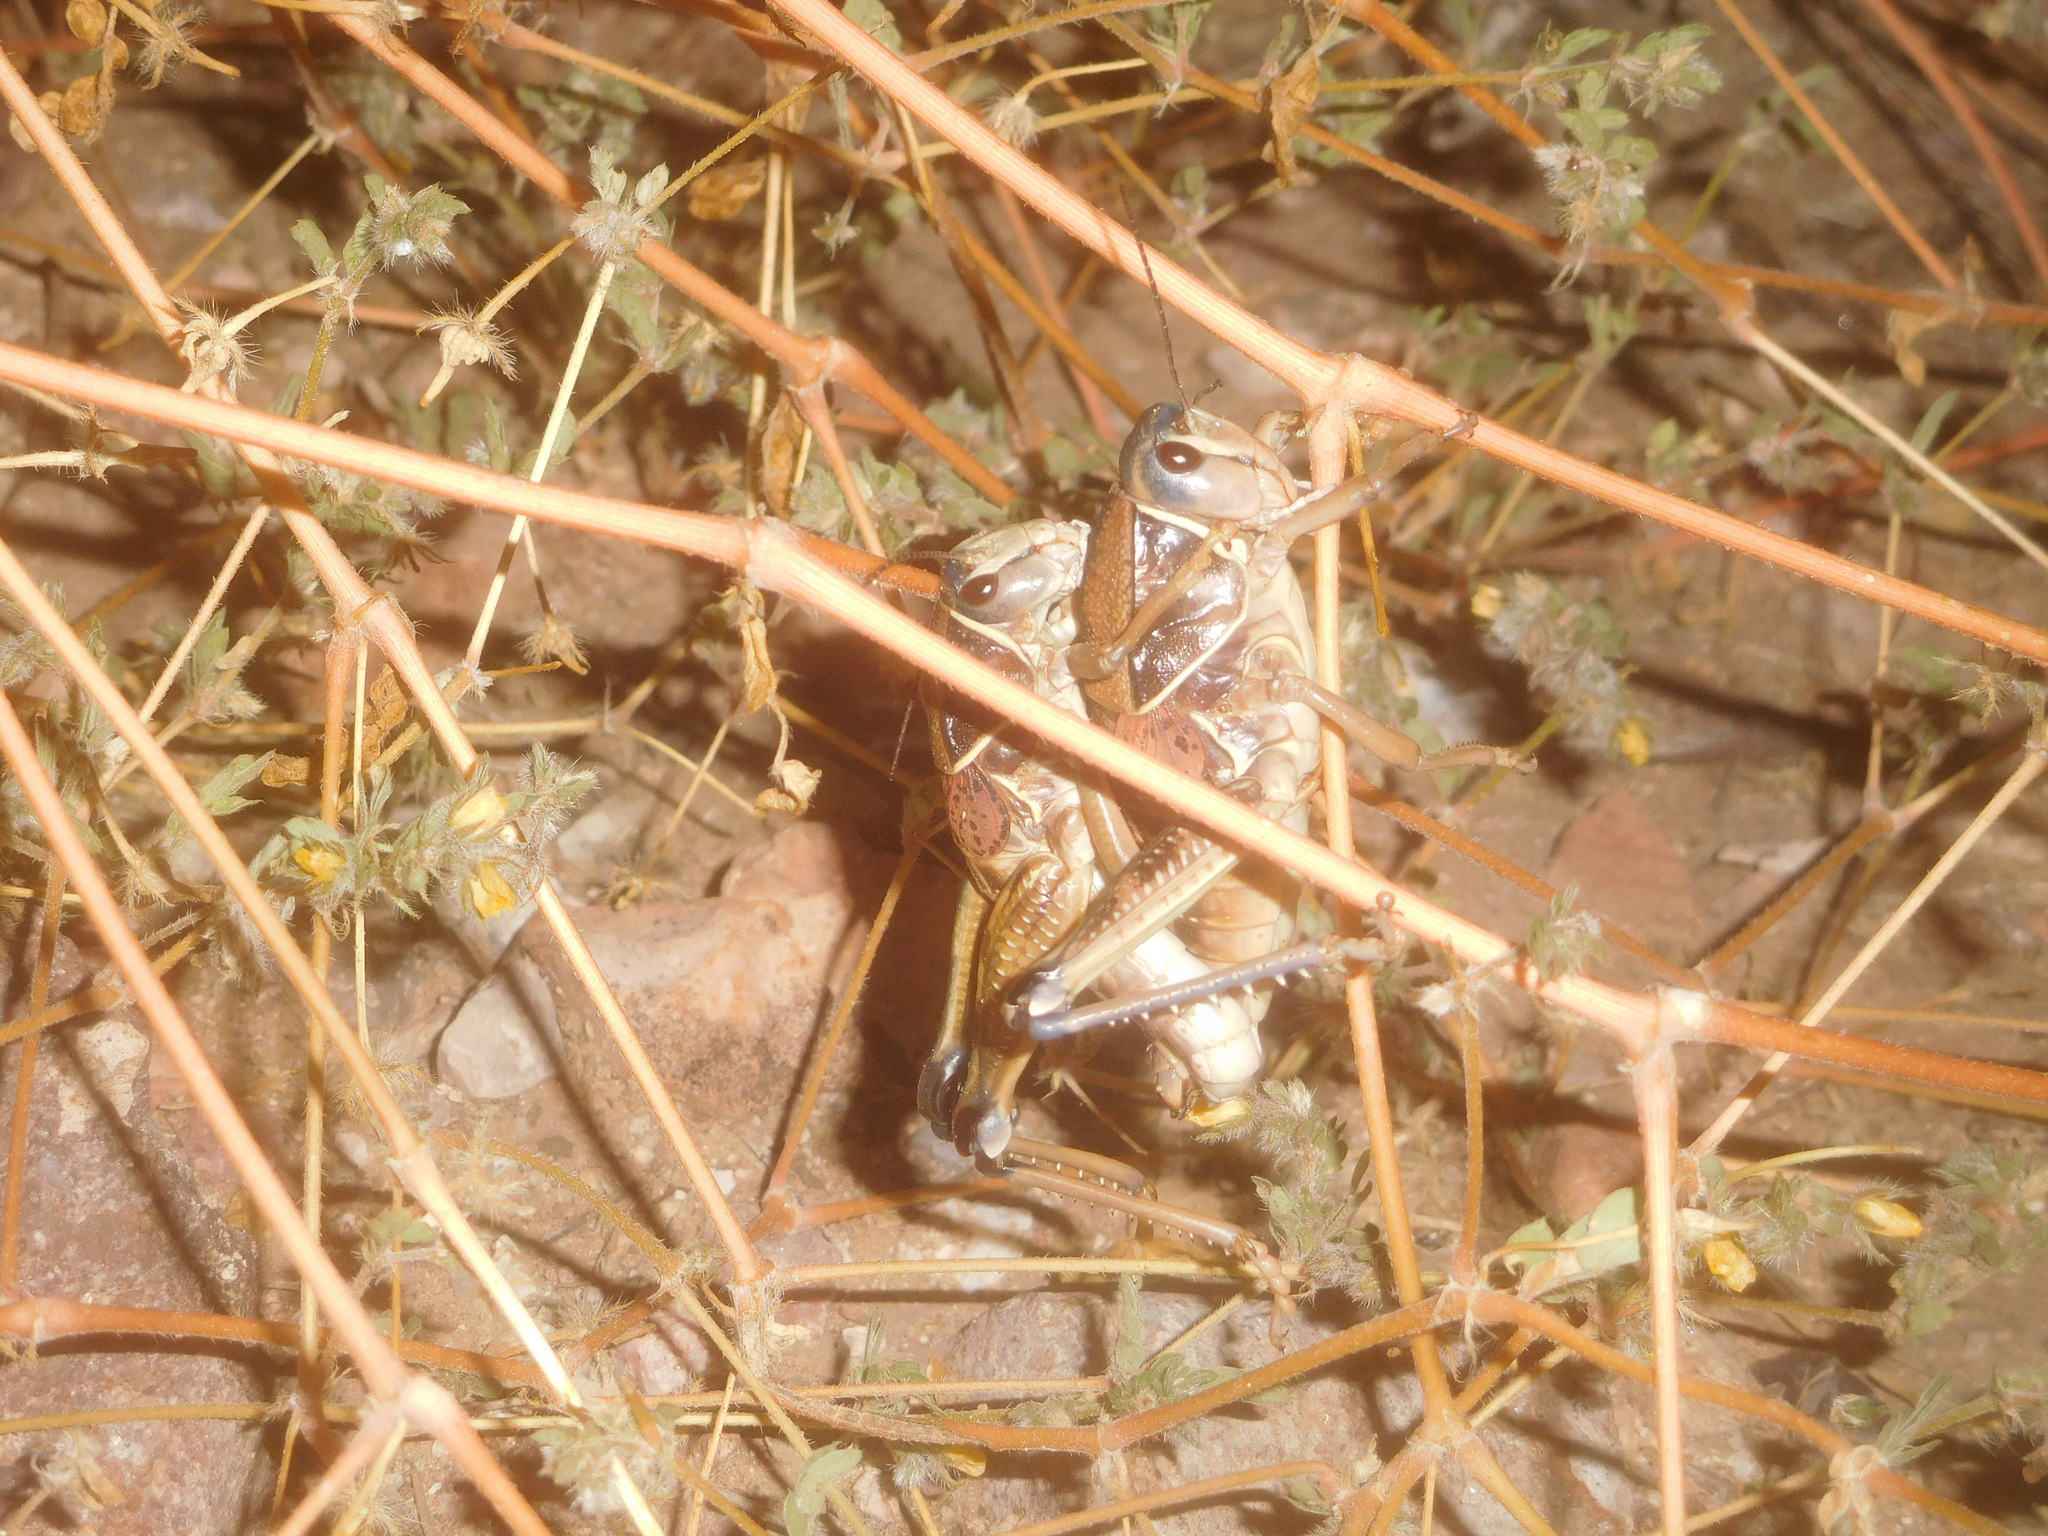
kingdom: Animalia
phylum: Arthropoda
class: Insecta
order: Orthoptera
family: Romaleidae
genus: Brachystola
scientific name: Brachystola magna
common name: Plains lubber grasshopper
